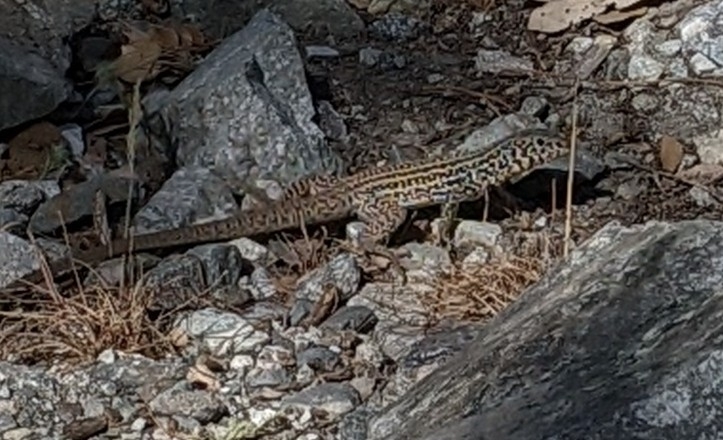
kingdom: Animalia
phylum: Chordata
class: Squamata
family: Teiidae
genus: Aspidoscelis
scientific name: Aspidoscelis tigris
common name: Tiger whiptail
